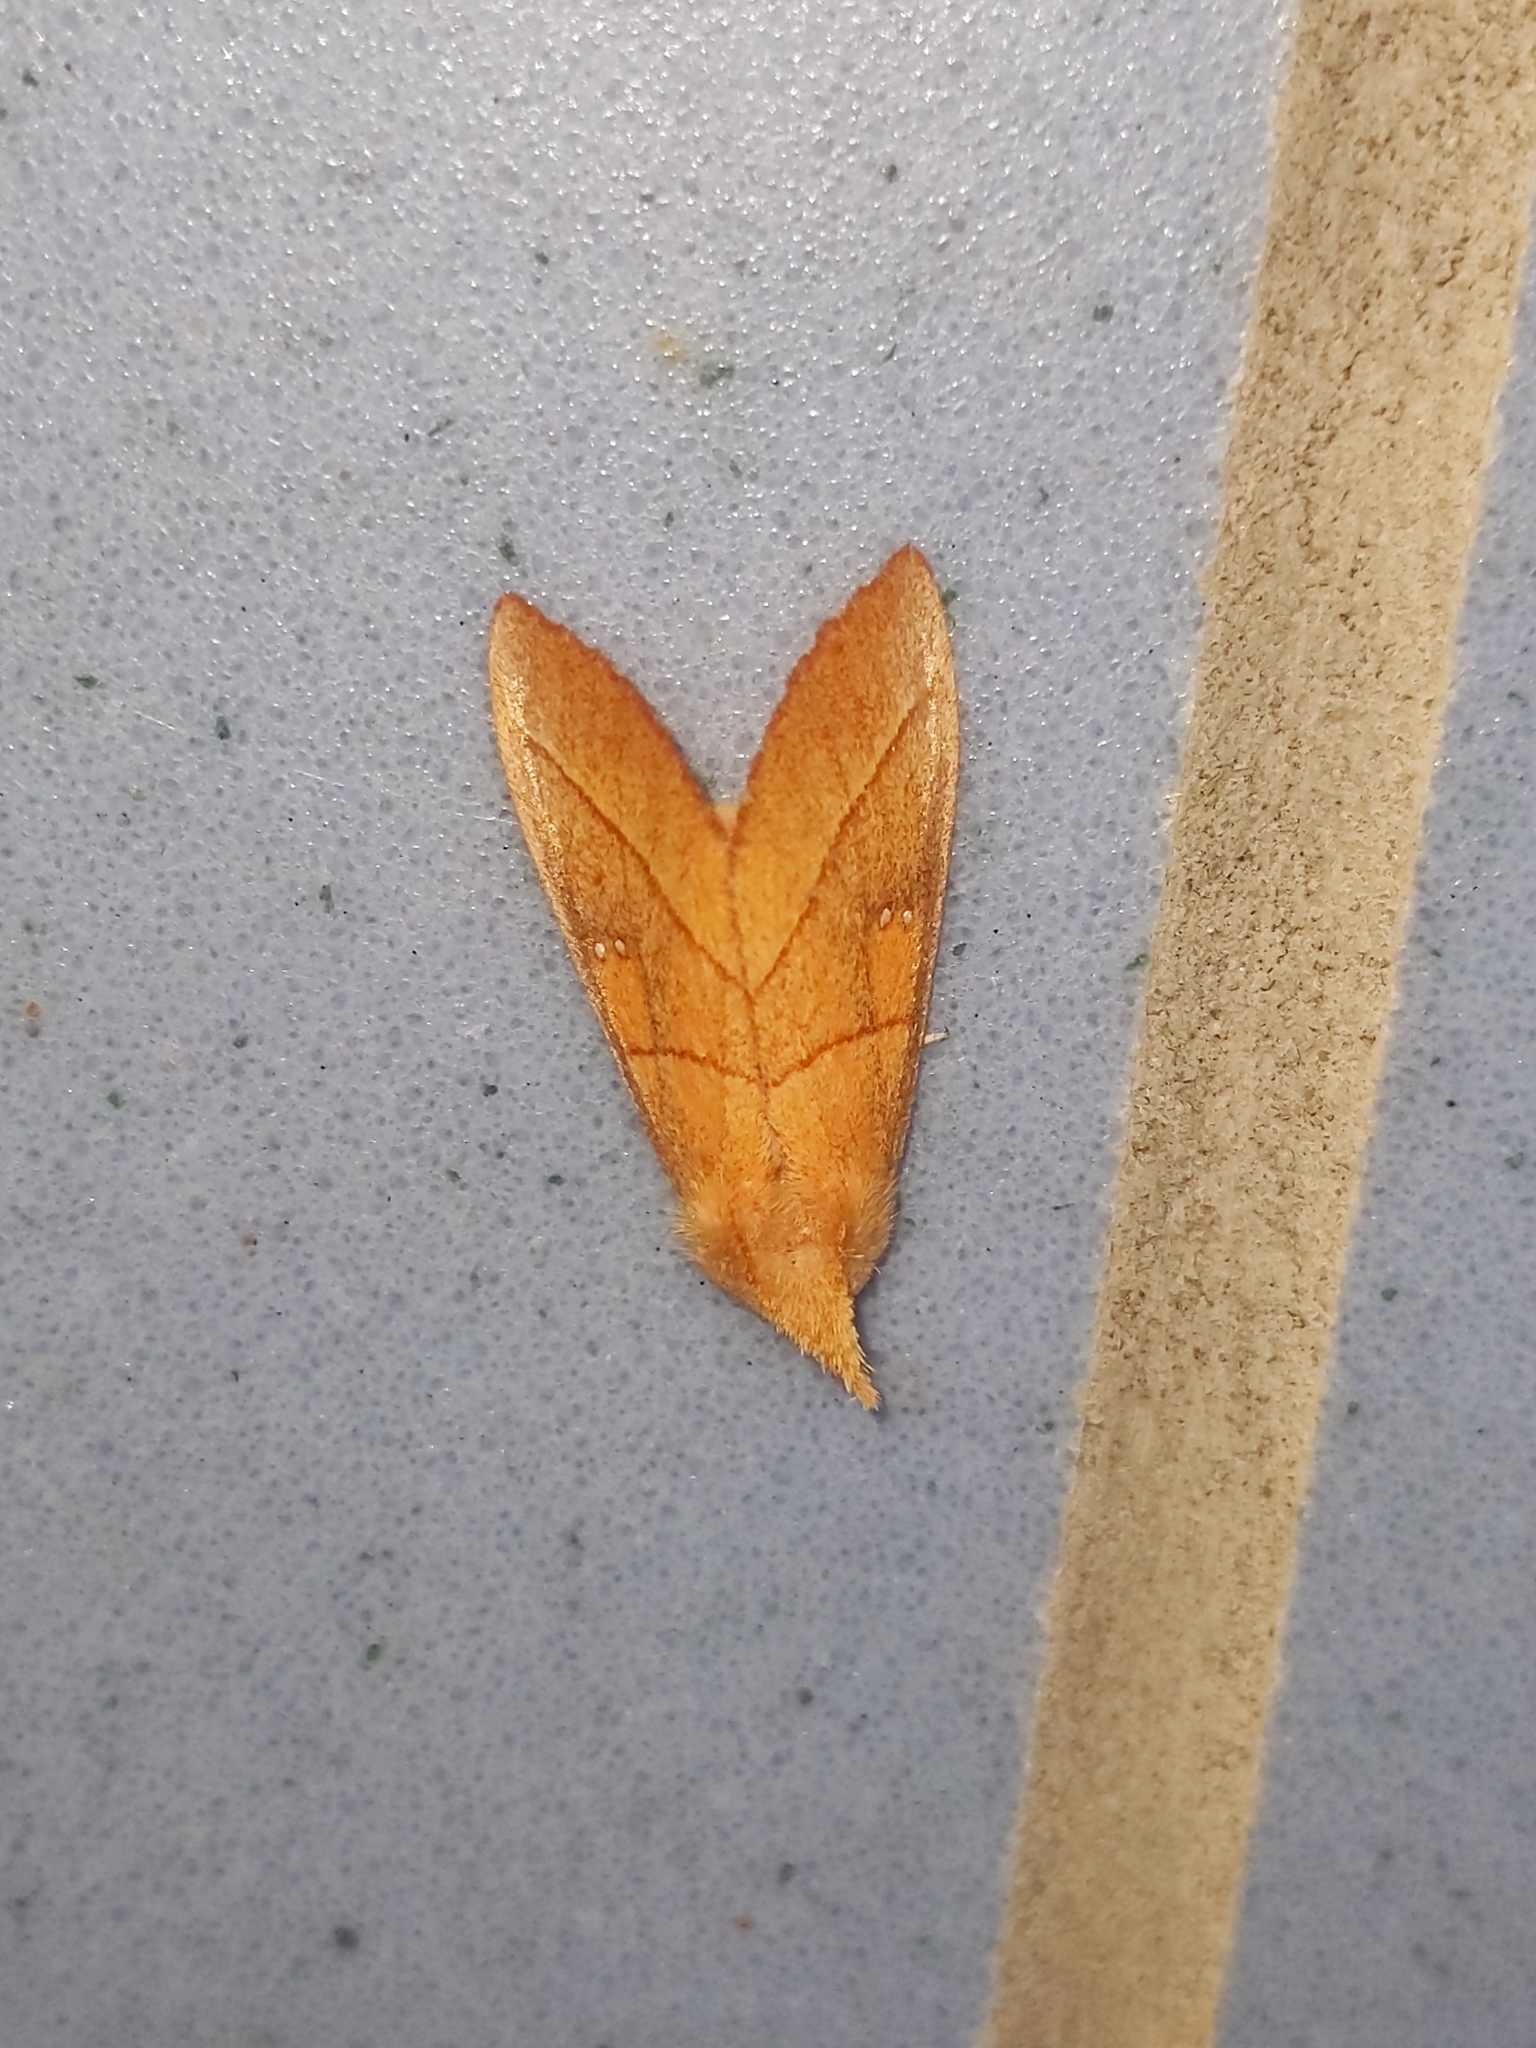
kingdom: Animalia
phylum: Arthropoda
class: Insecta
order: Lepidoptera
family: Notodontidae
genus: Nadata
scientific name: Nadata gibbosa
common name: White-dotted prominent
